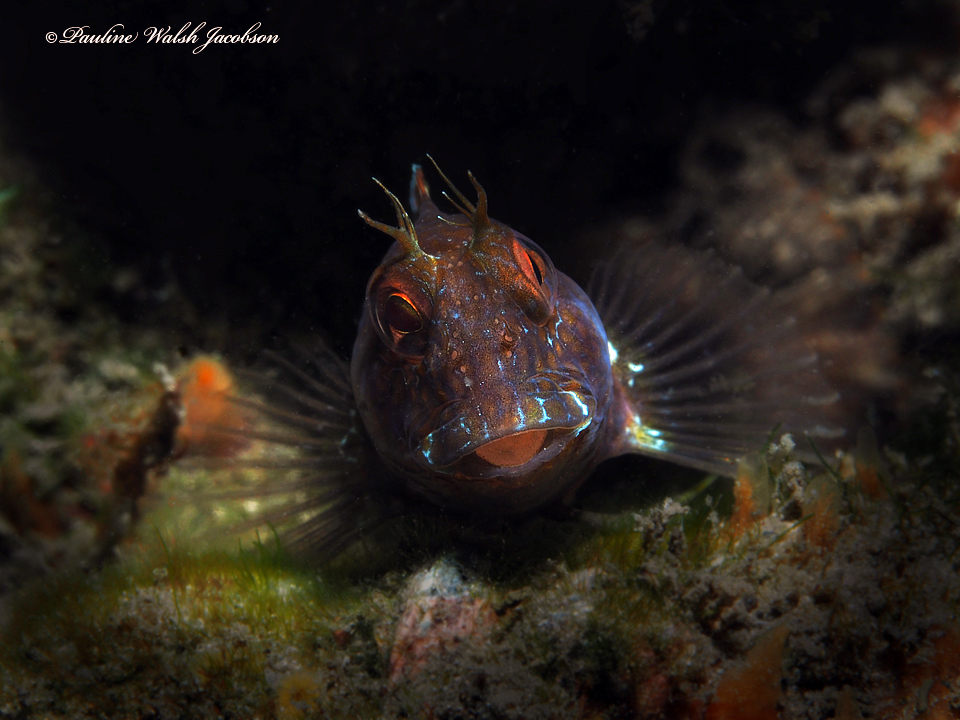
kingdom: Animalia
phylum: Chordata
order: Perciformes
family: Blenniidae
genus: Parablennius
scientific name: Parablennius marmoreus
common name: Seaweed blenny
